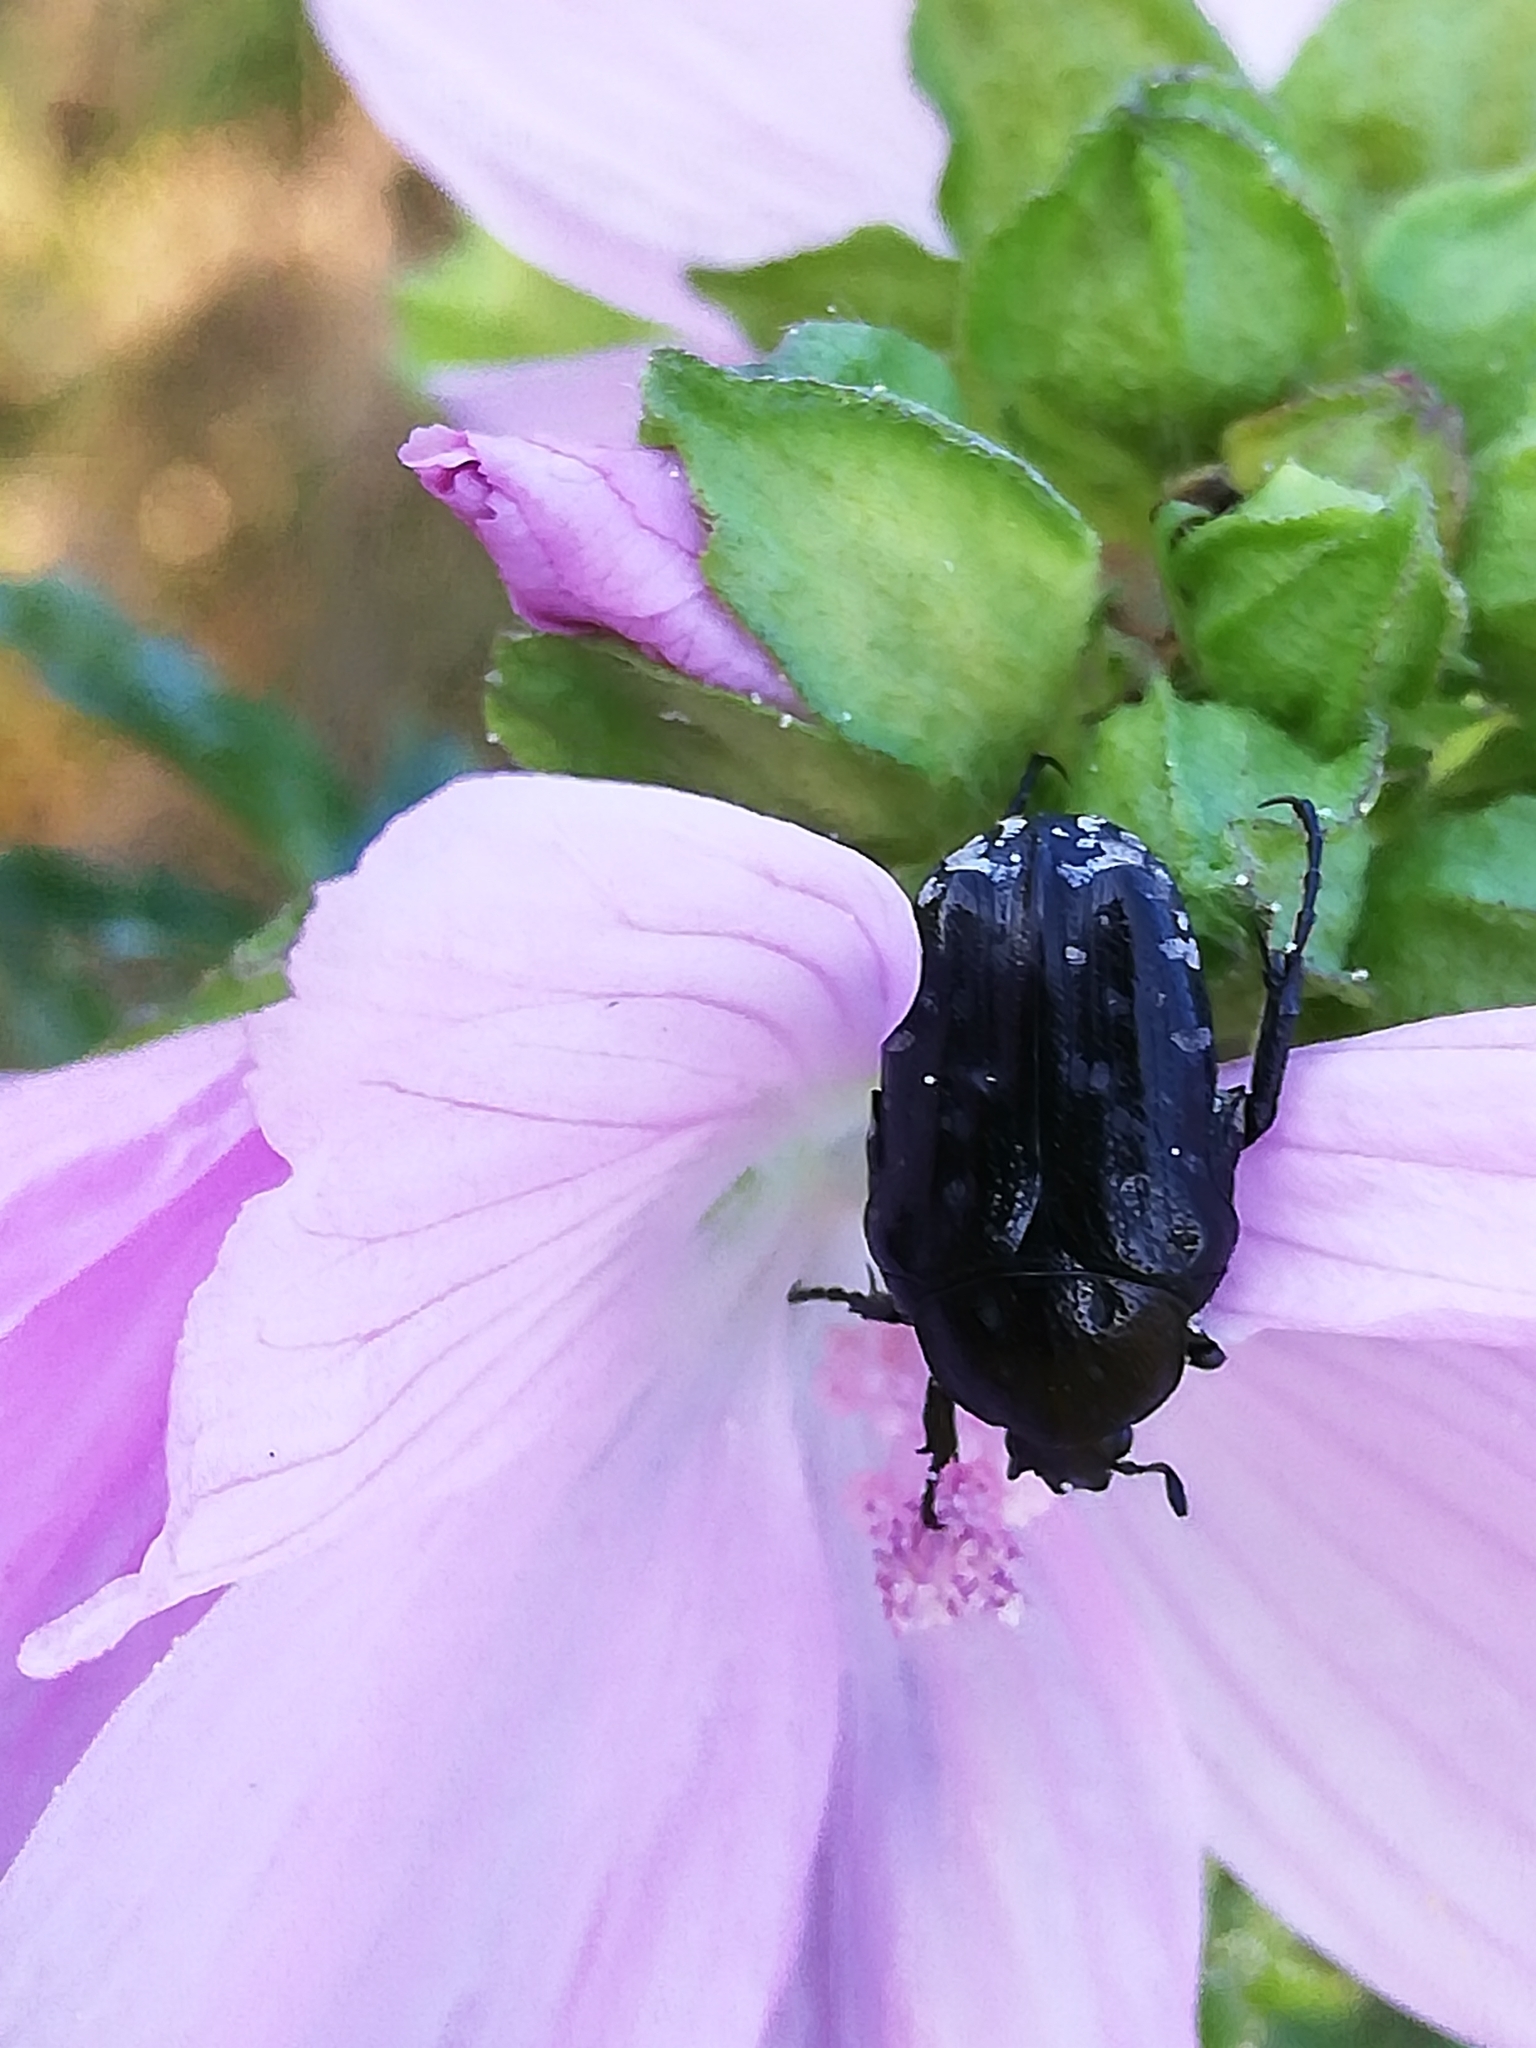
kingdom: Animalia
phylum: Arthropoda
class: Insecta
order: Coleoptera
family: Scarabaeidae
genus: Oxythyrea
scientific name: Oxythyrea funesta
